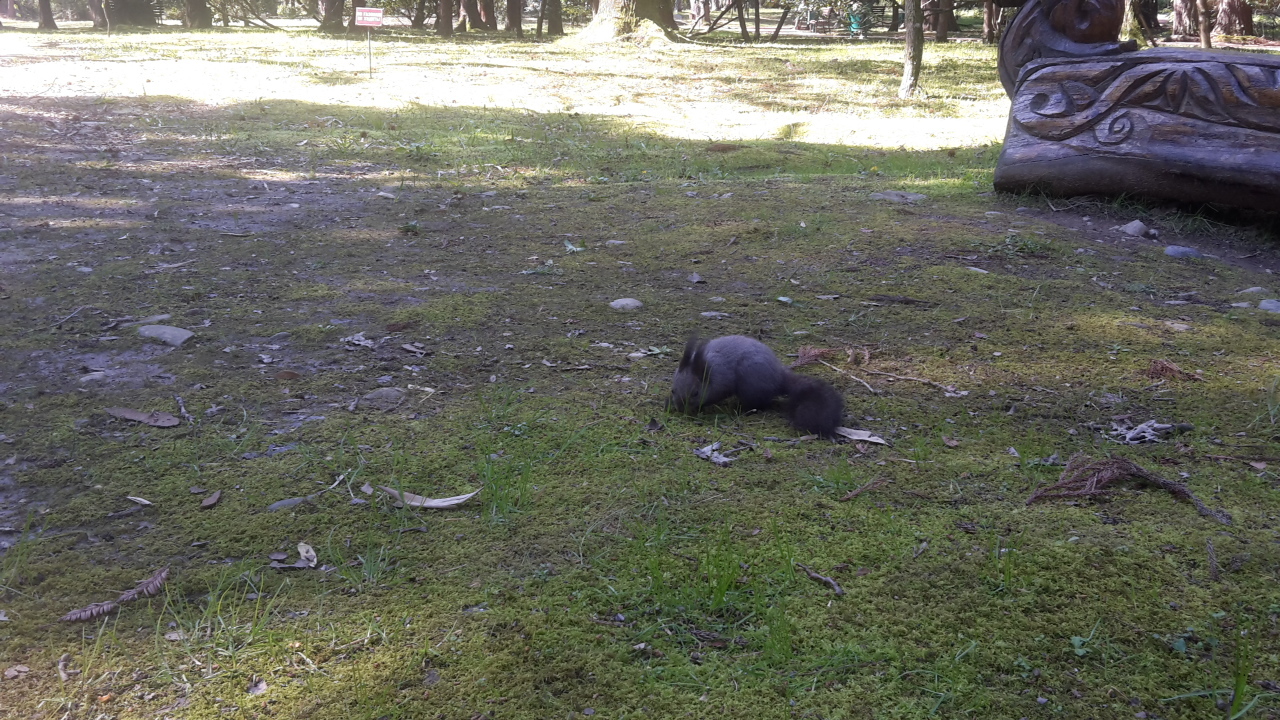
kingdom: Animalia
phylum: Chordata
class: Mammalia
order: Rodentia
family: Sciuridae
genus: Sciurus
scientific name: Sciurus vulgaris
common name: Eurasian red squirrel
